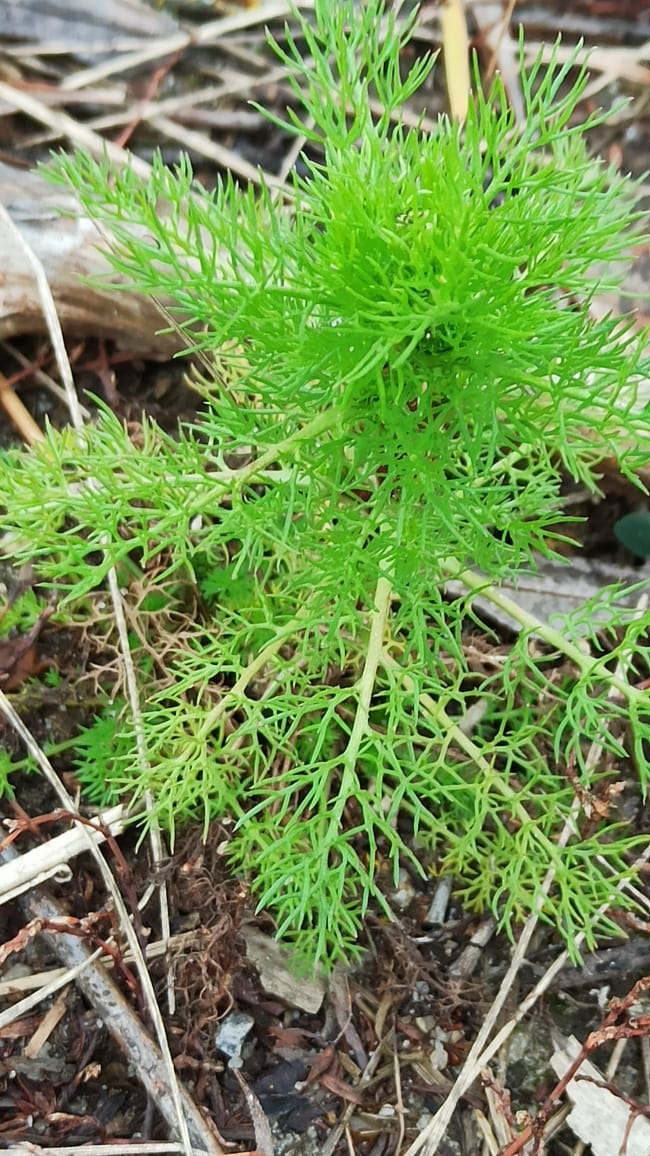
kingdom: Plantae
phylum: Tracheophyta
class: Magnoliopsida
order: Asterales
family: Asteraceae
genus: Tripleurospermum
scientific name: Tripleurospermum inodorum
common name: Scentless mayweed
